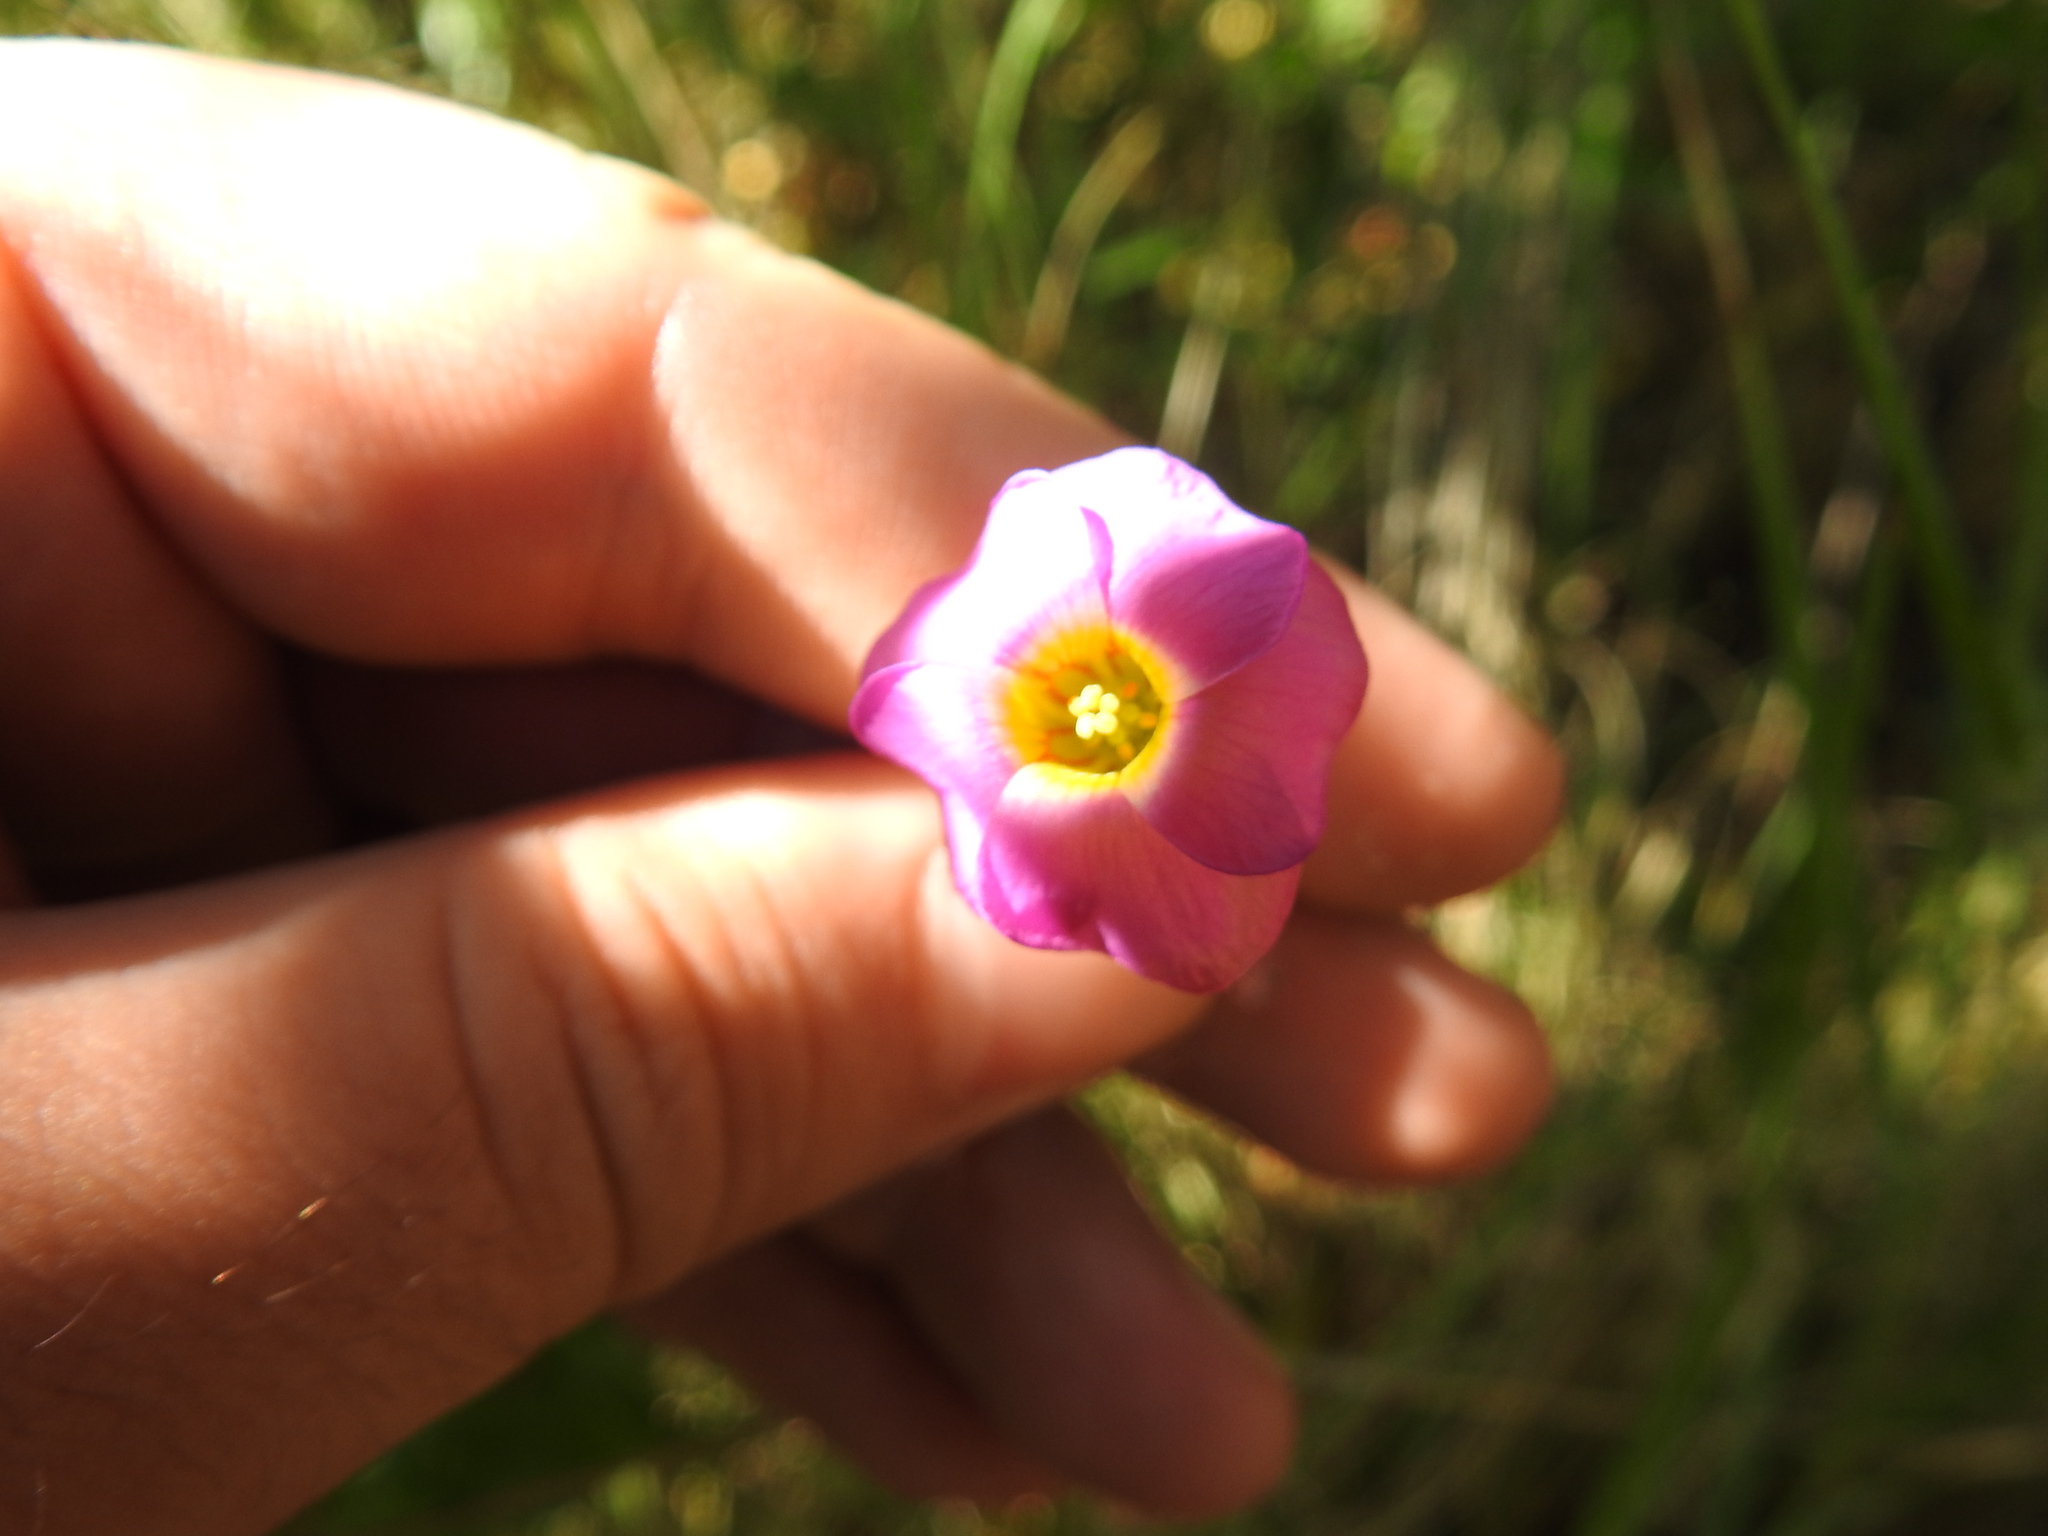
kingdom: Plantae
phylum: Tracheophyta
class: Magnoliopsida
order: Oxalidales
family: Oxalidaceae
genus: Oxalis
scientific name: Oxalis obliquifolia
